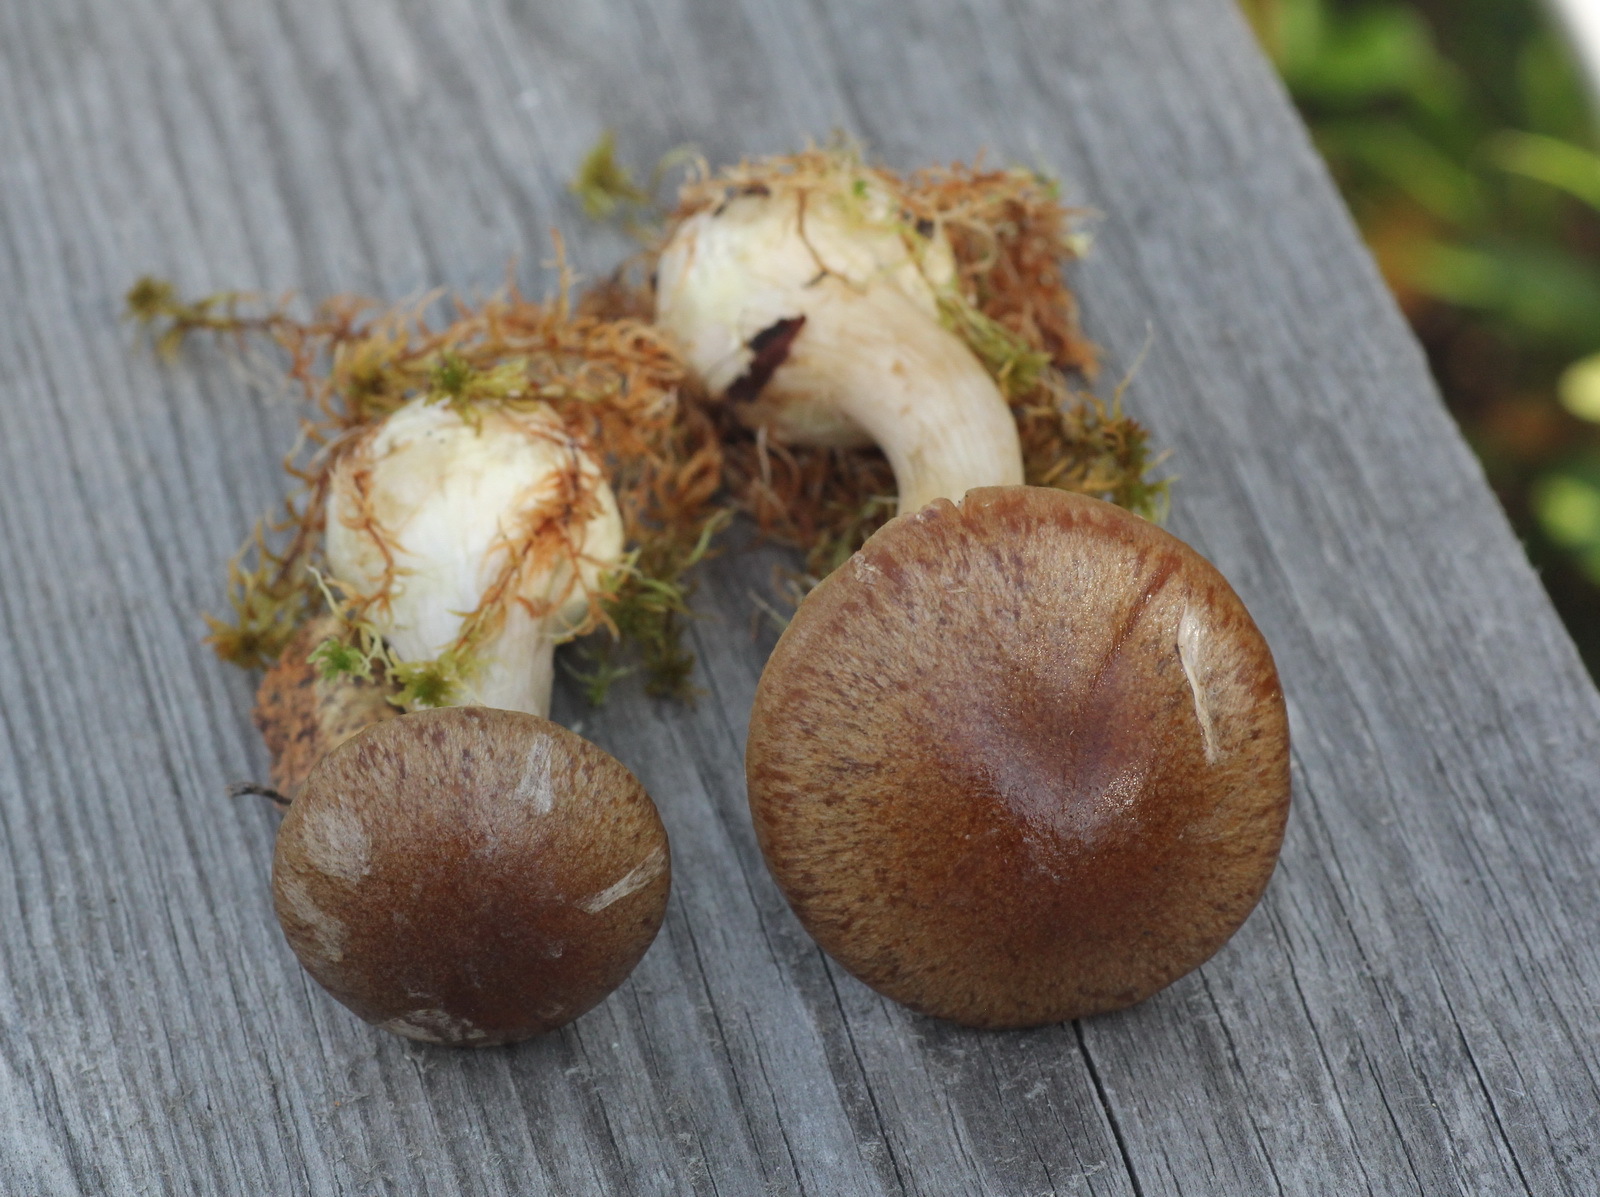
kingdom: Fungi
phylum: Basidiomycota
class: Agaricomycetes
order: Agaricales
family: Cortinariaceae
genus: Thaxterogaster
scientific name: Thaxterogaster scaurus
